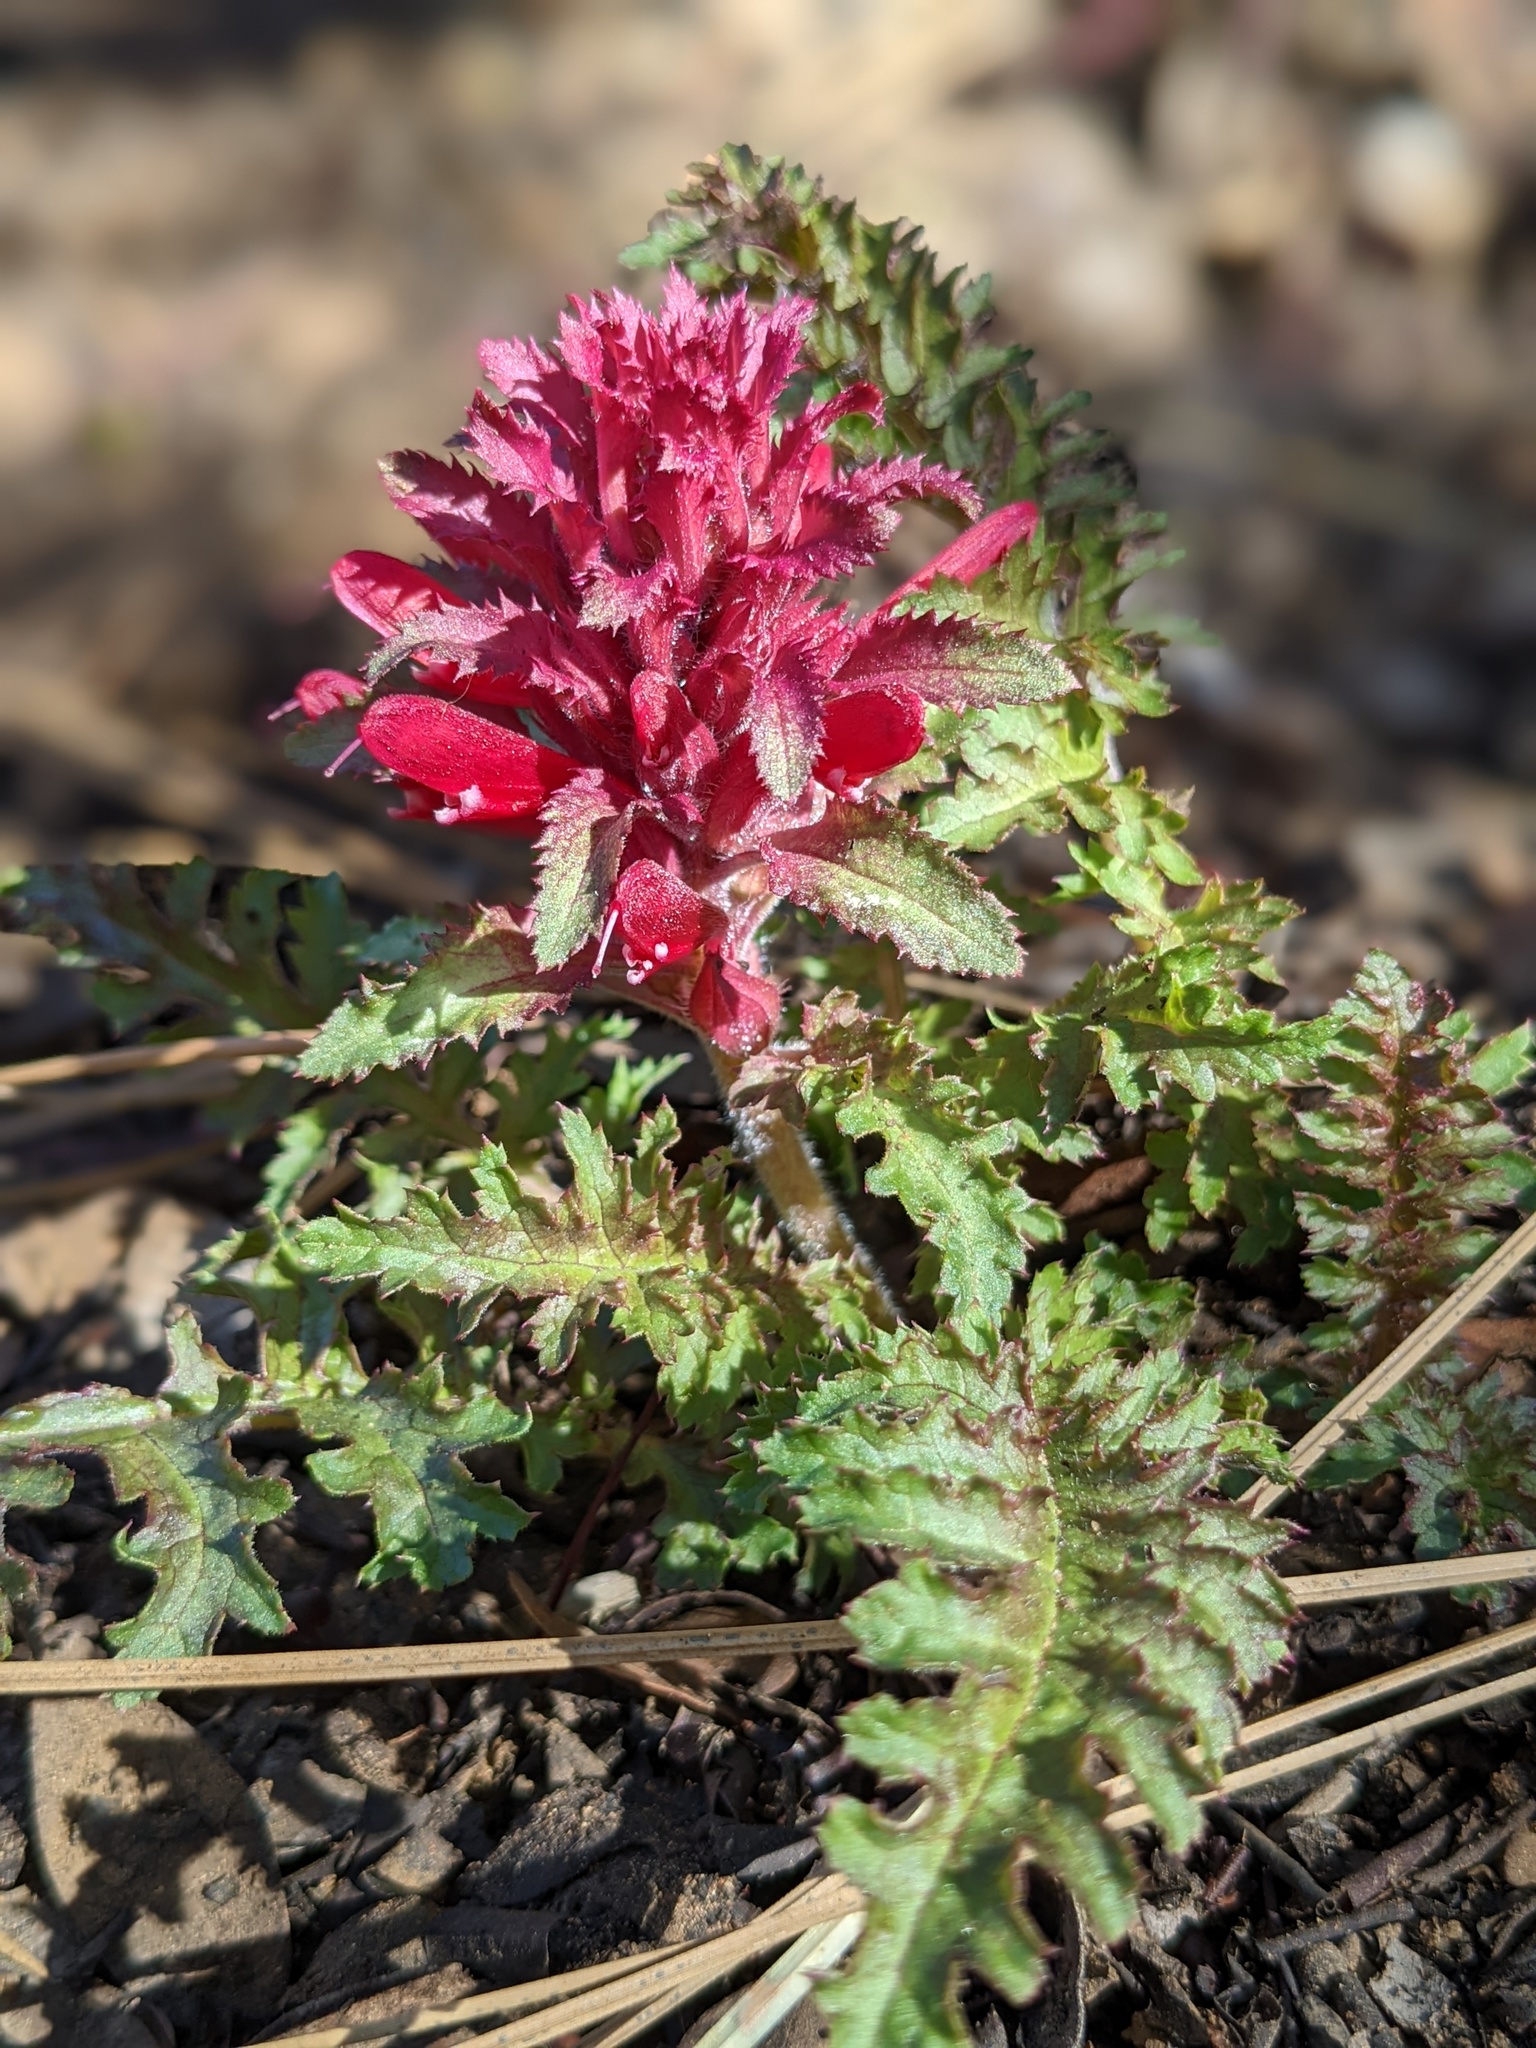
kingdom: Plantae
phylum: Tracheophyta
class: Magnoliopsida
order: Lamiales
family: Orobanchaceae
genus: Pedicularis
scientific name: Pedicularis densiflora
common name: Indian warrior
